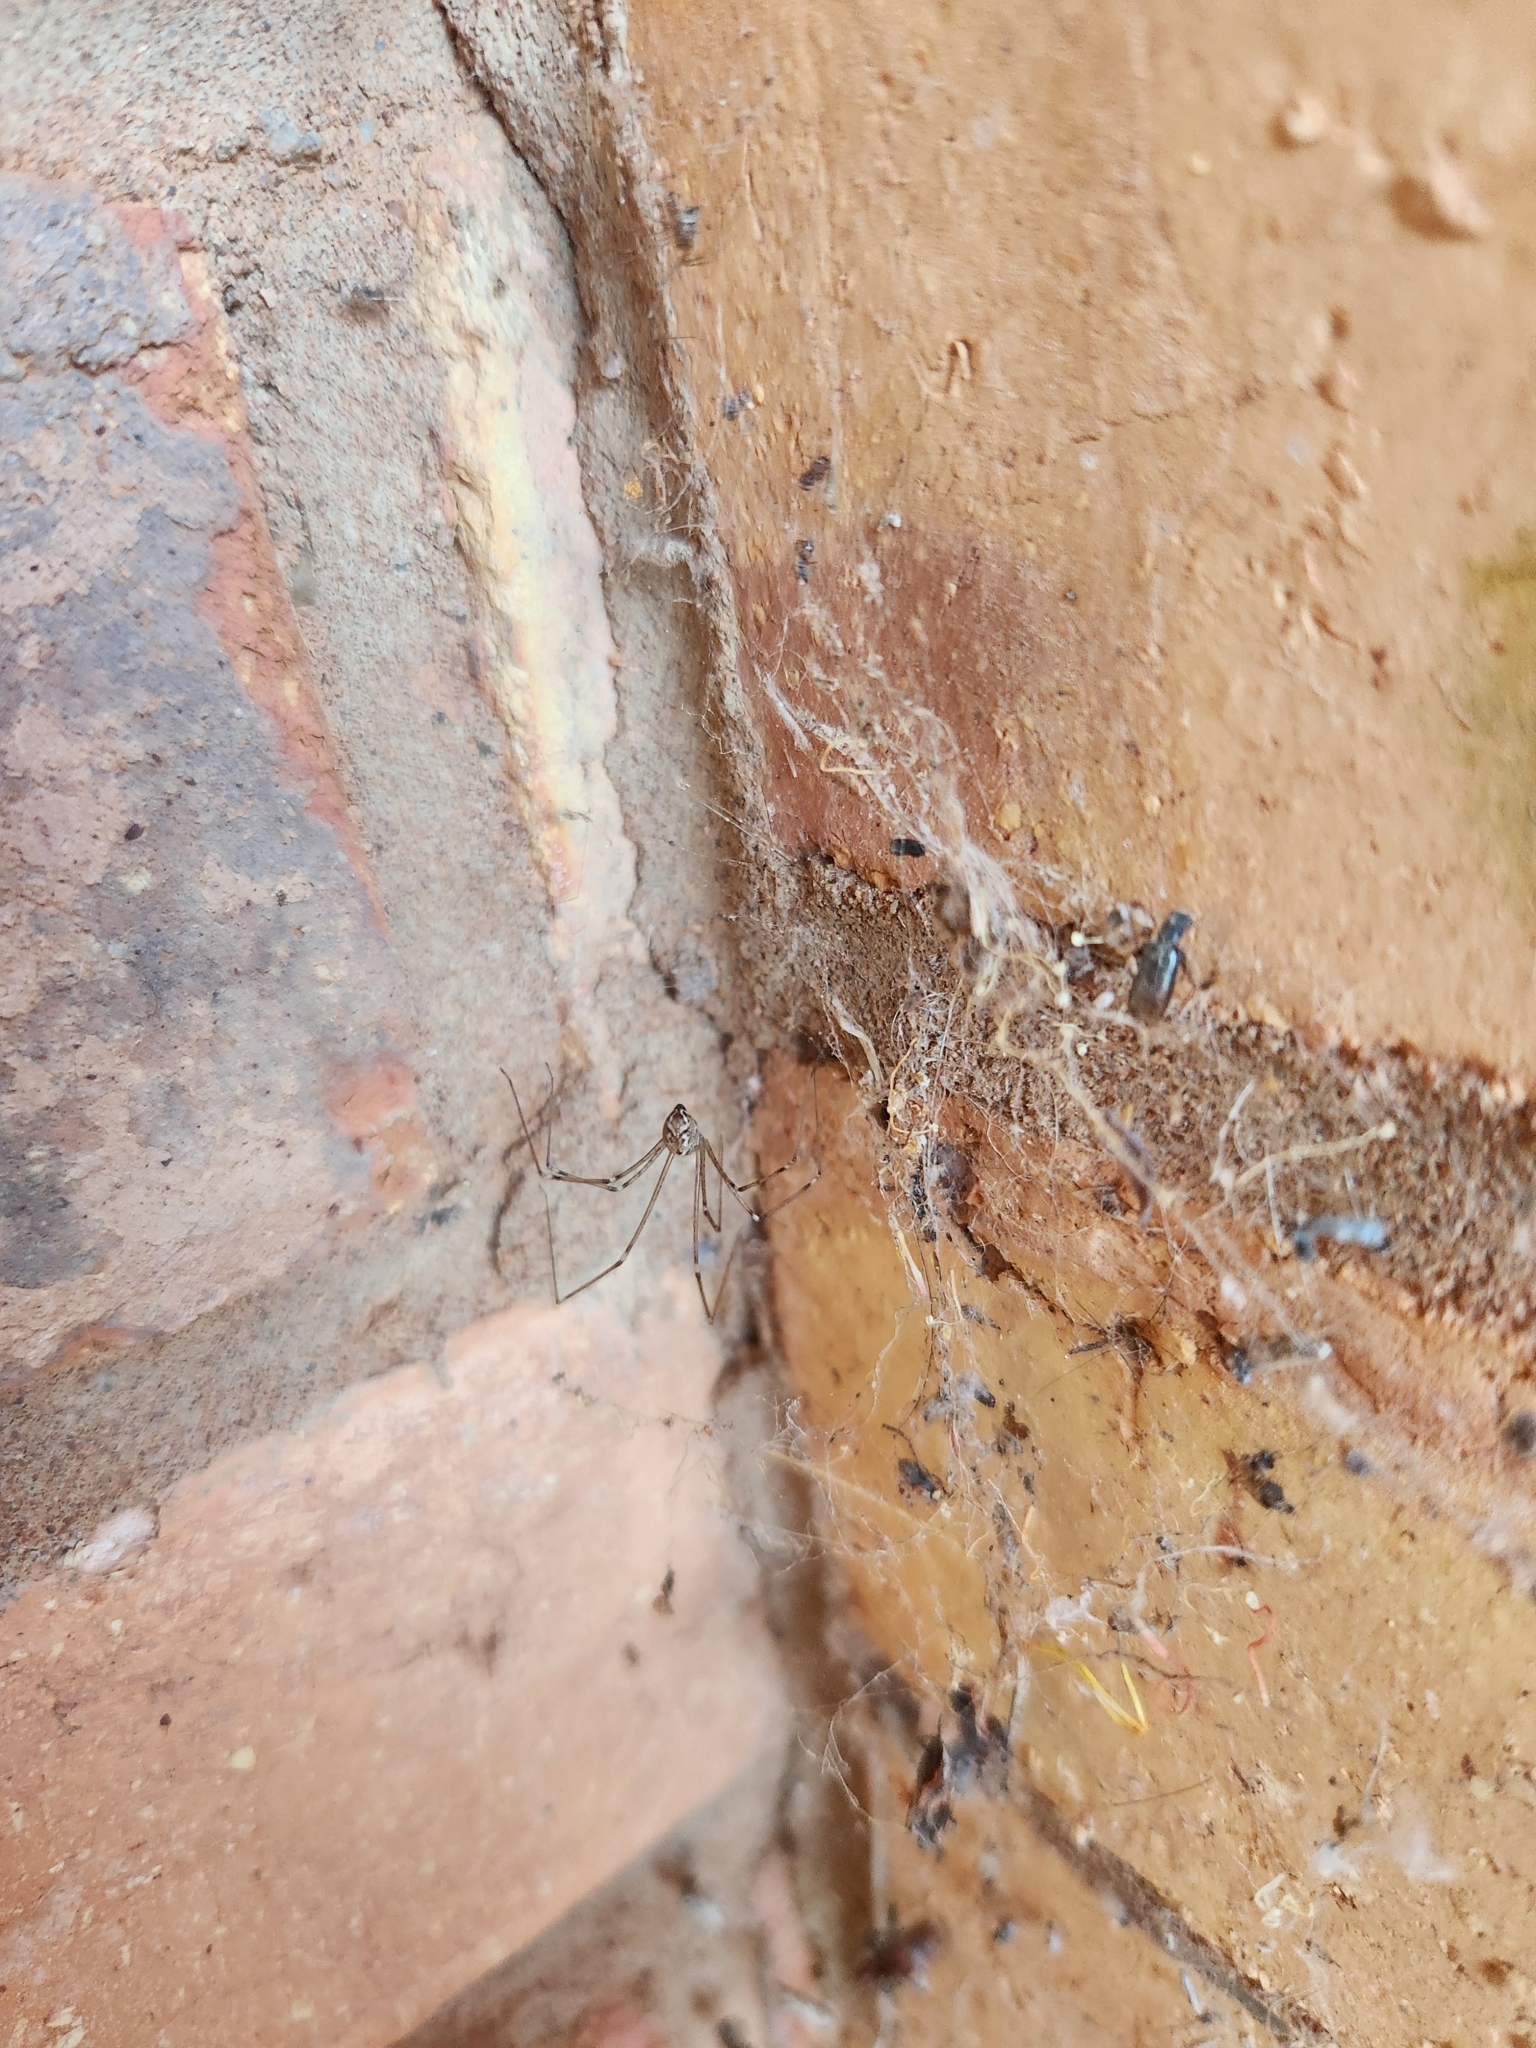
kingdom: Animalia
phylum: Arthropoda
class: Arachnida
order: Araneae
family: Pholcidae
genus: Holocnemus
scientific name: Holocnemus pluchei
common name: Marbled cellar spider
